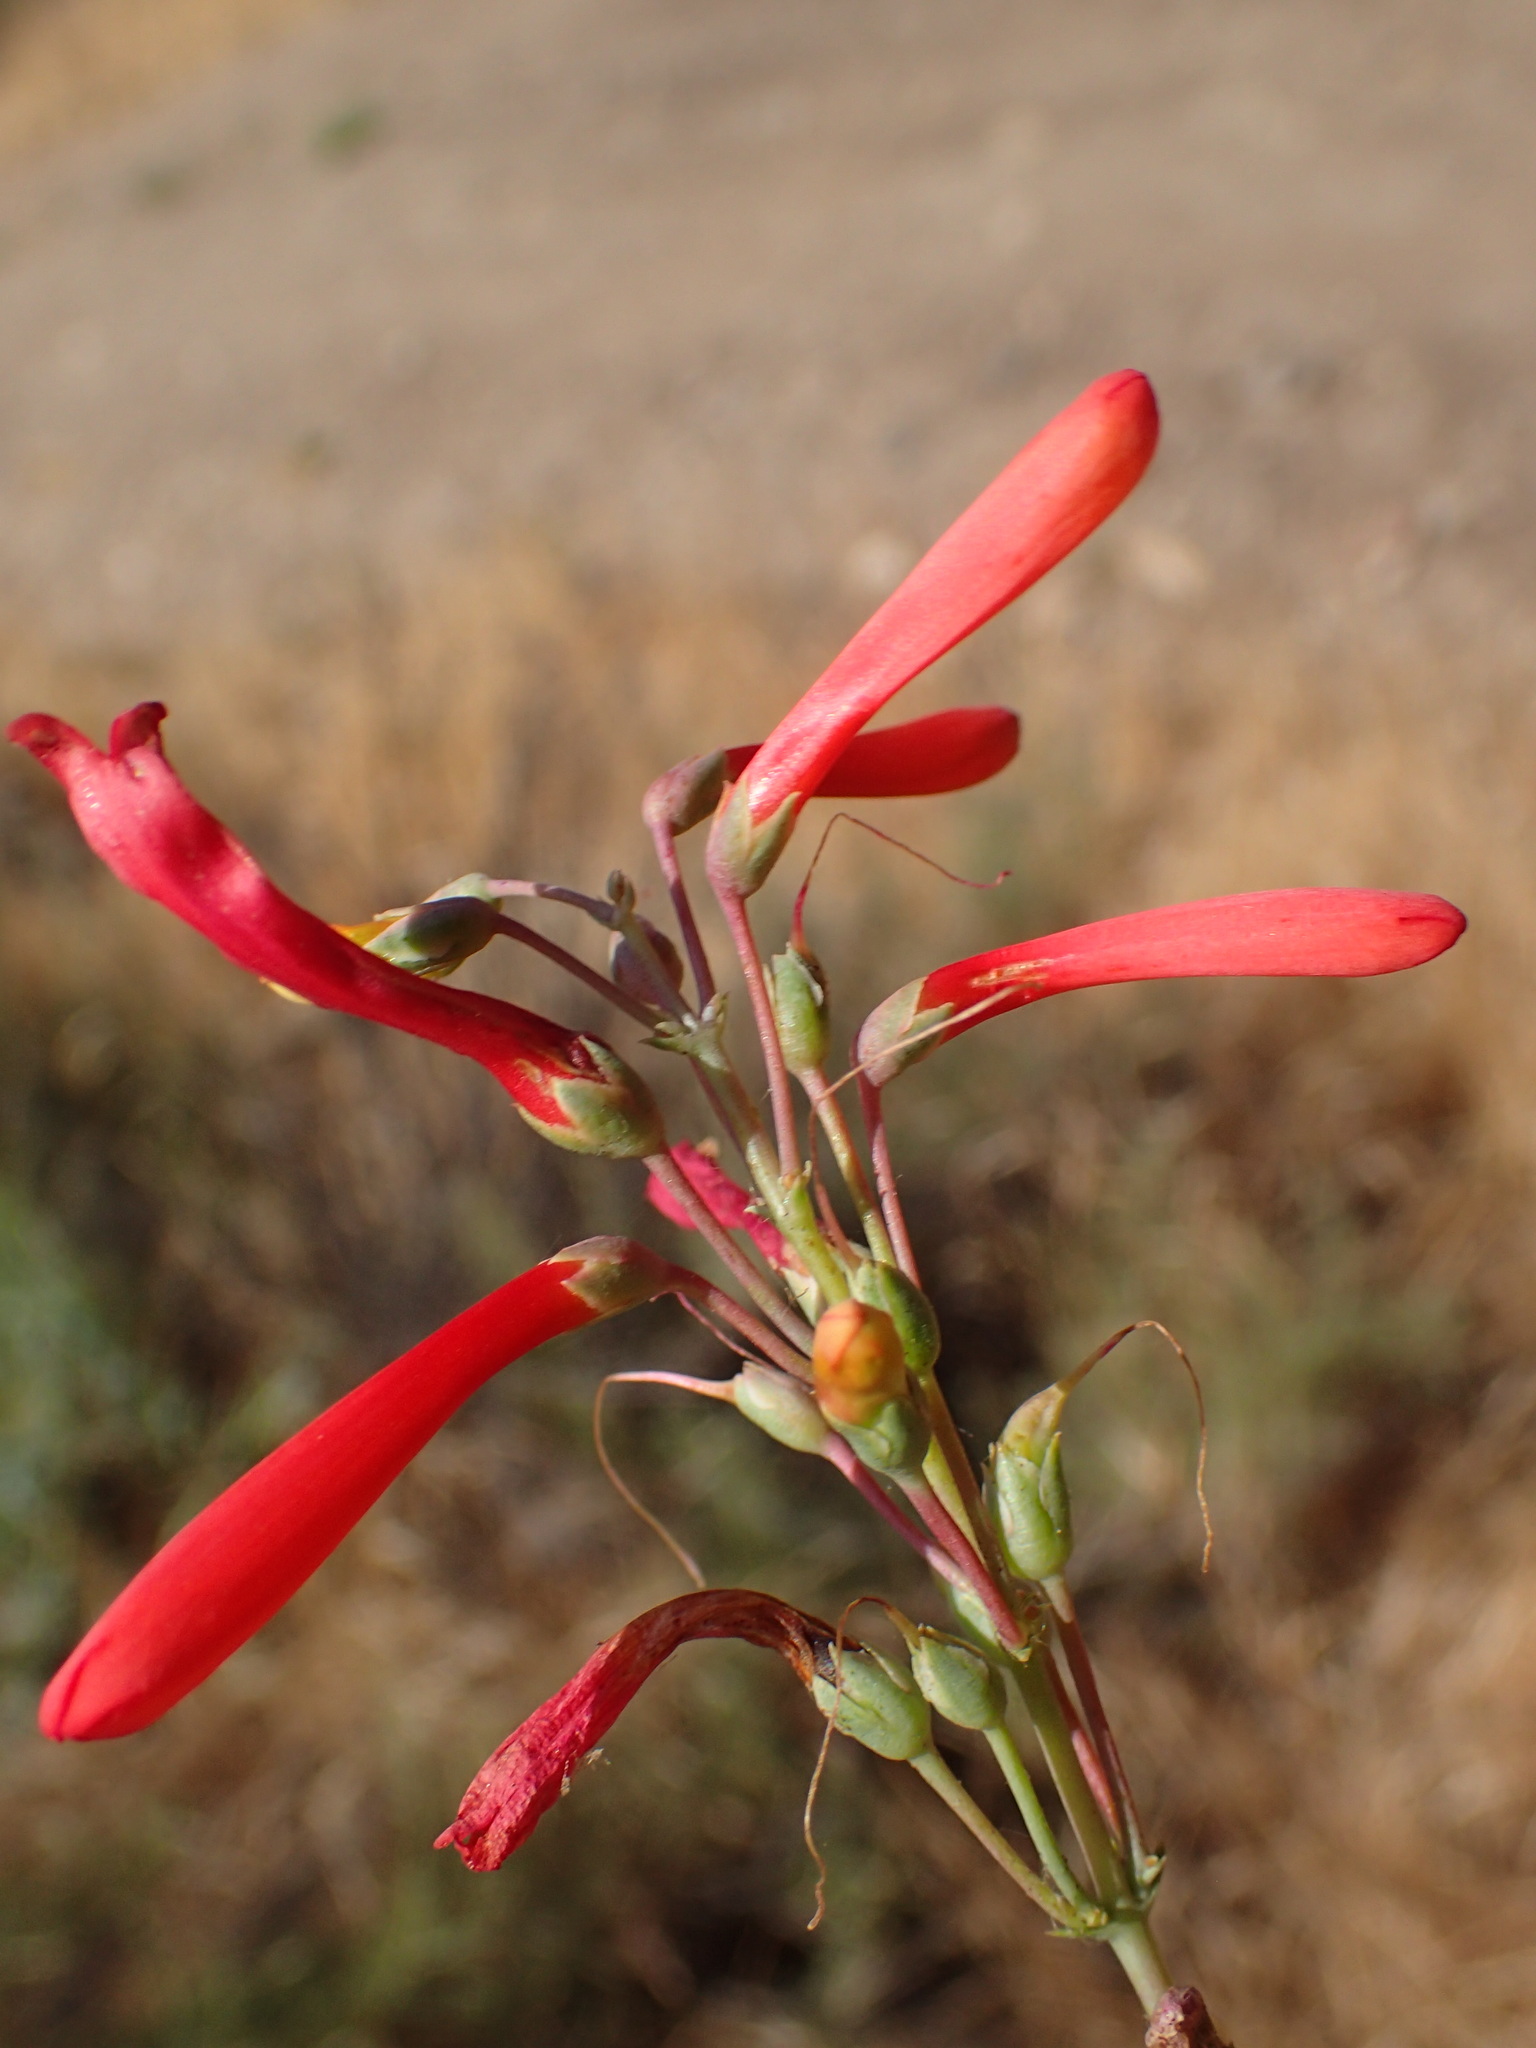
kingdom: Plantae
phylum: Tracheophyta
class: Magnoliopsida
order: Lamiales
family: Plantaginaceae
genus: Penstemon
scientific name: Penstemon centranthifolius
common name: Scarlet bugler
